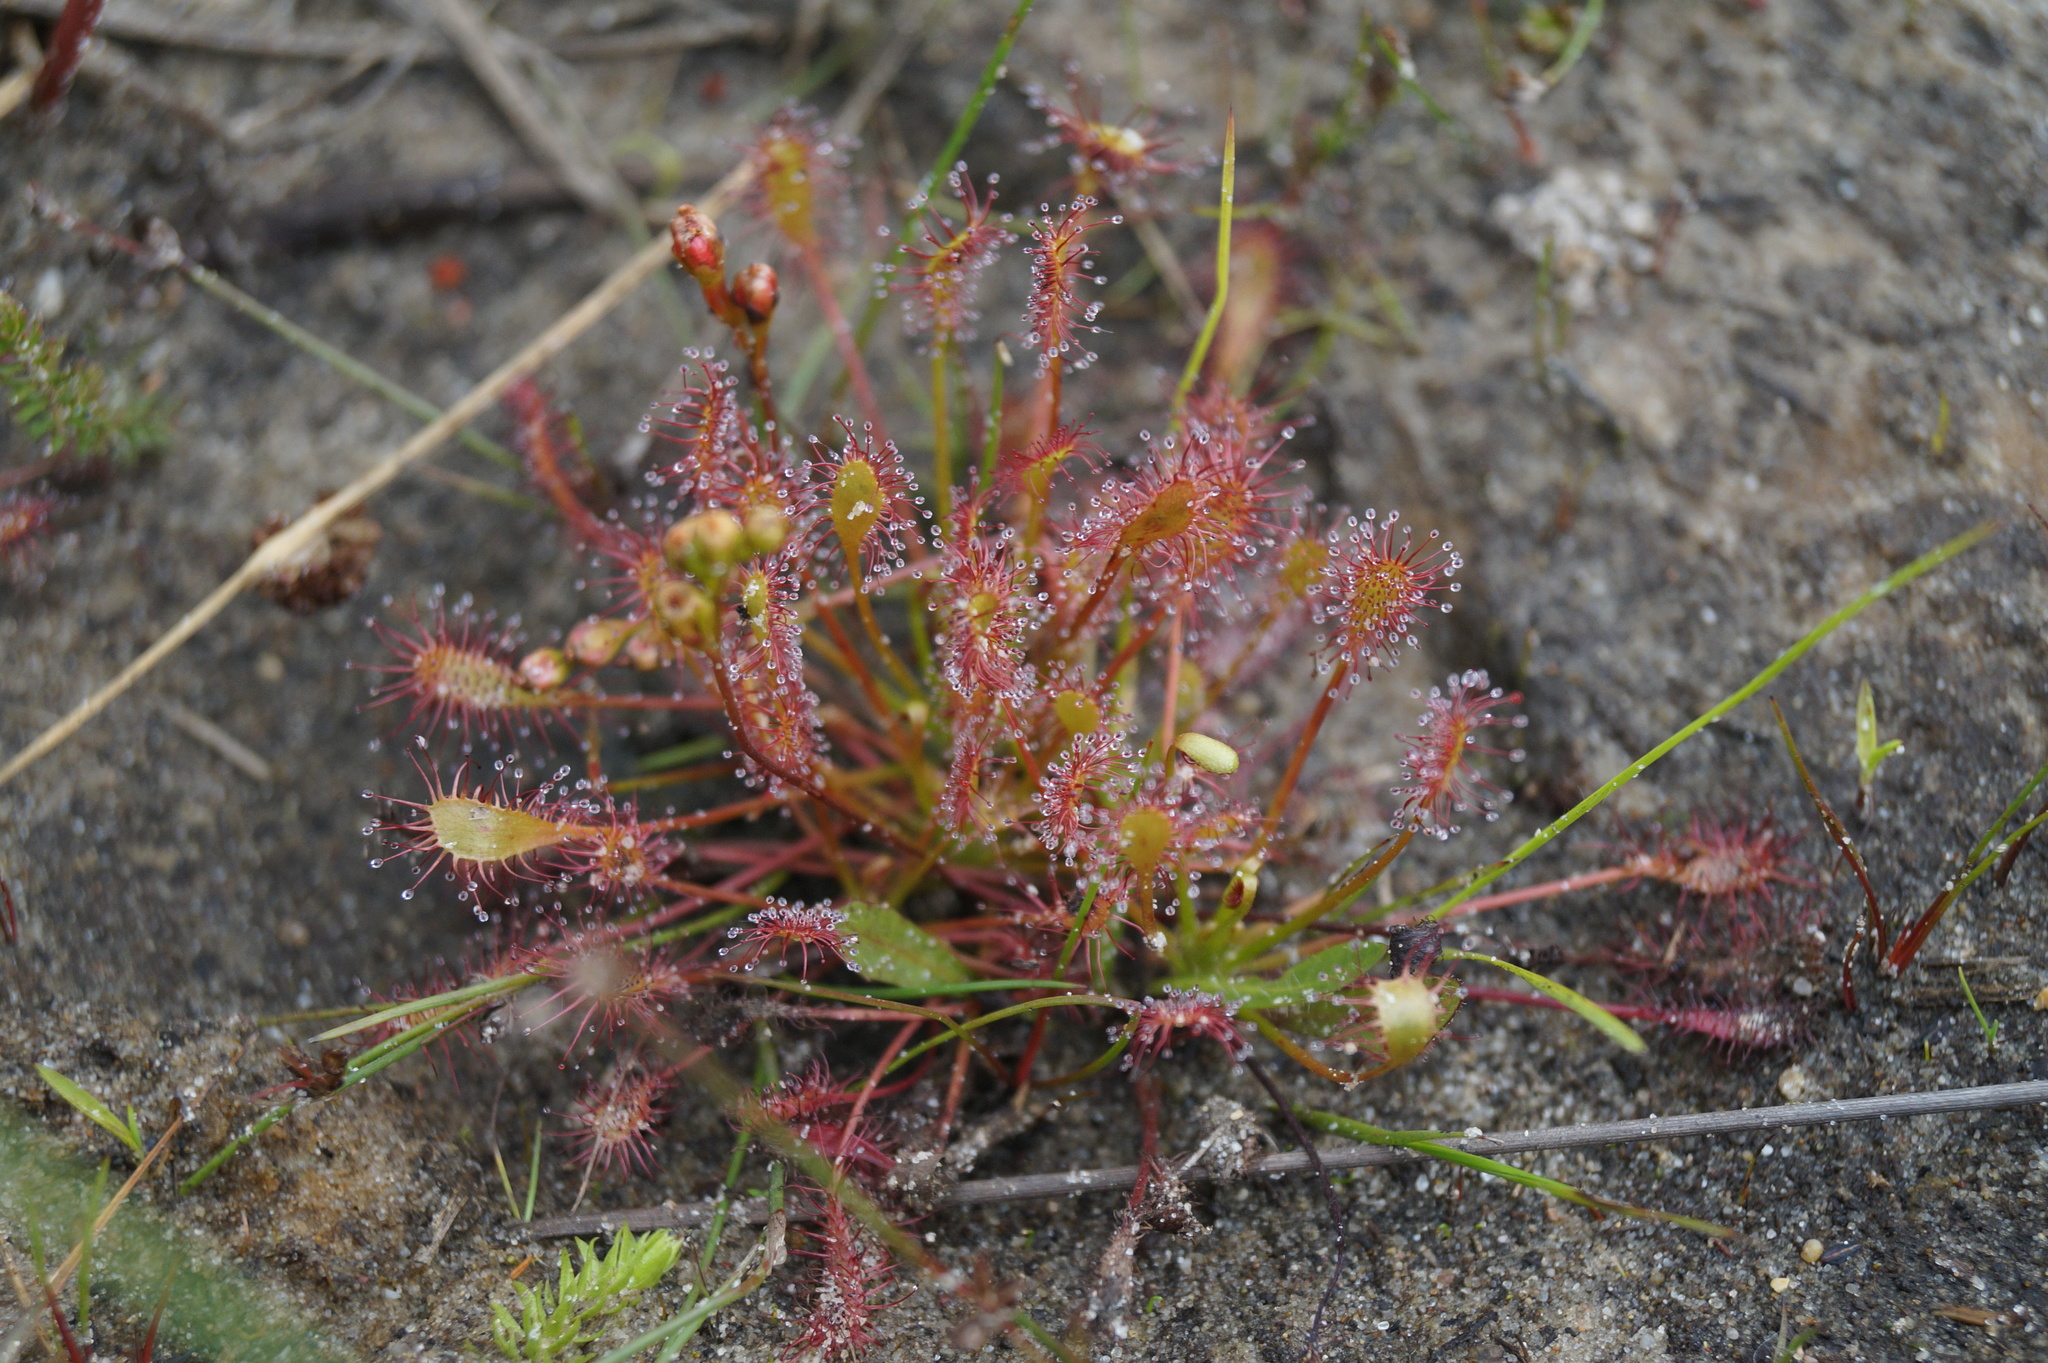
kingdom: Plantae
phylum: Tracheophyta
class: Magnoliopsida
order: Caryophyllales
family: Droseraceae
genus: Drosera
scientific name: Drosera intermedia
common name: Oblong-leaved sundew
